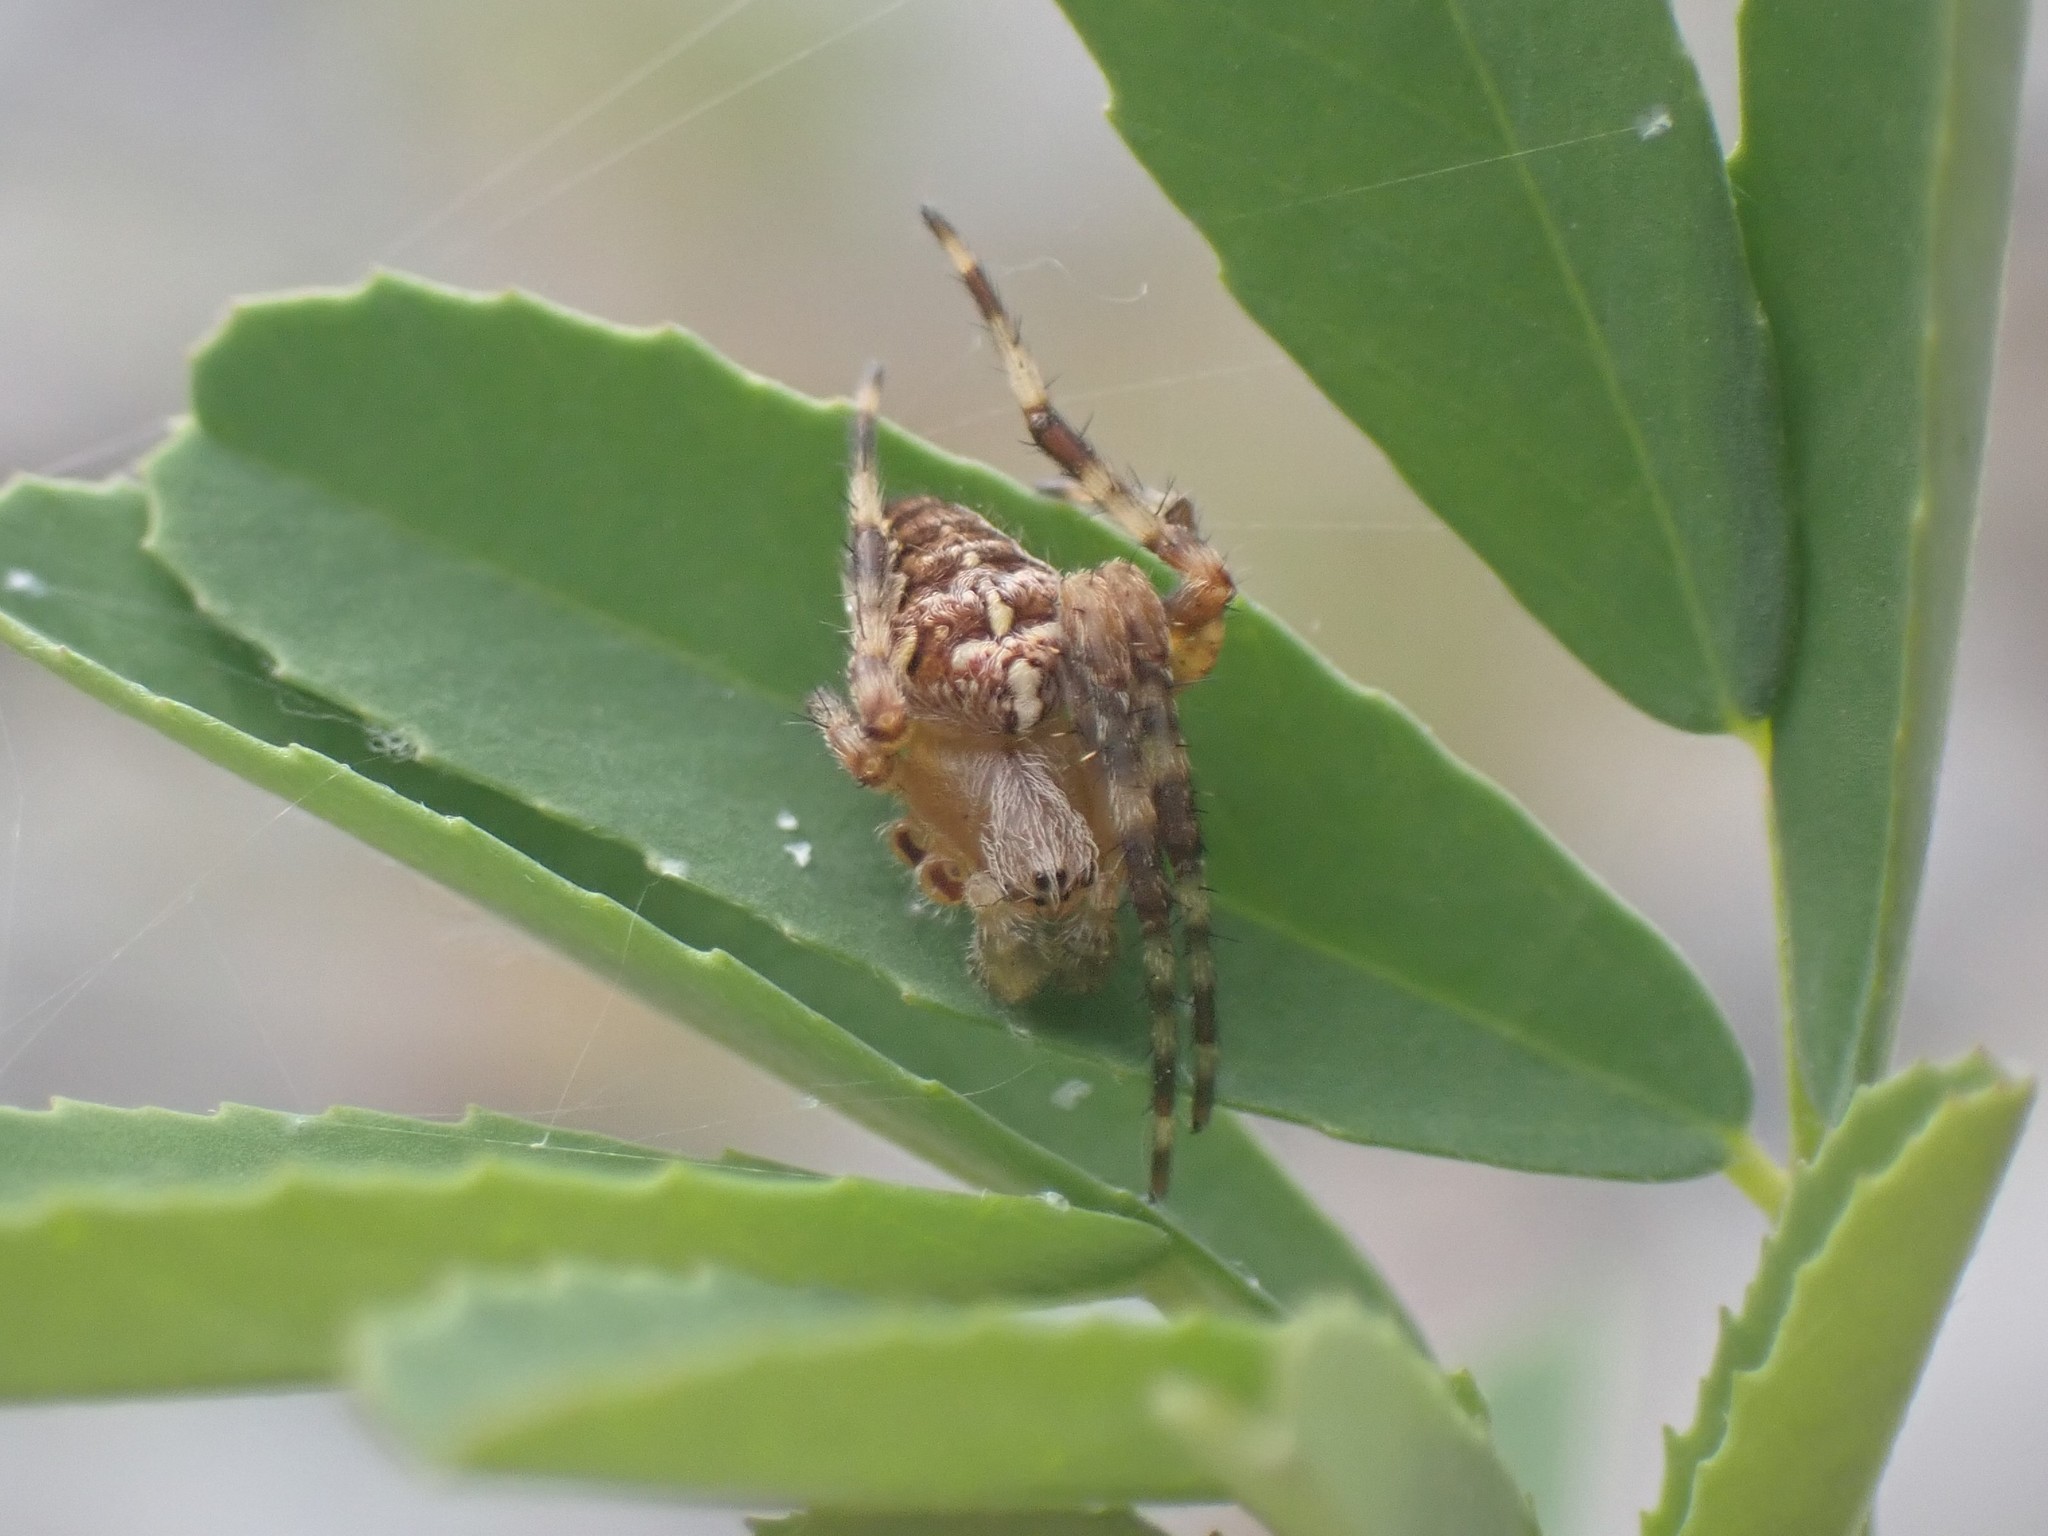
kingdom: Animalia
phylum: Arthropoda
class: Arachnida
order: Araneae
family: Araneidae
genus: Araneus
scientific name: Araneus diadematus
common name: Cross orbweaver
